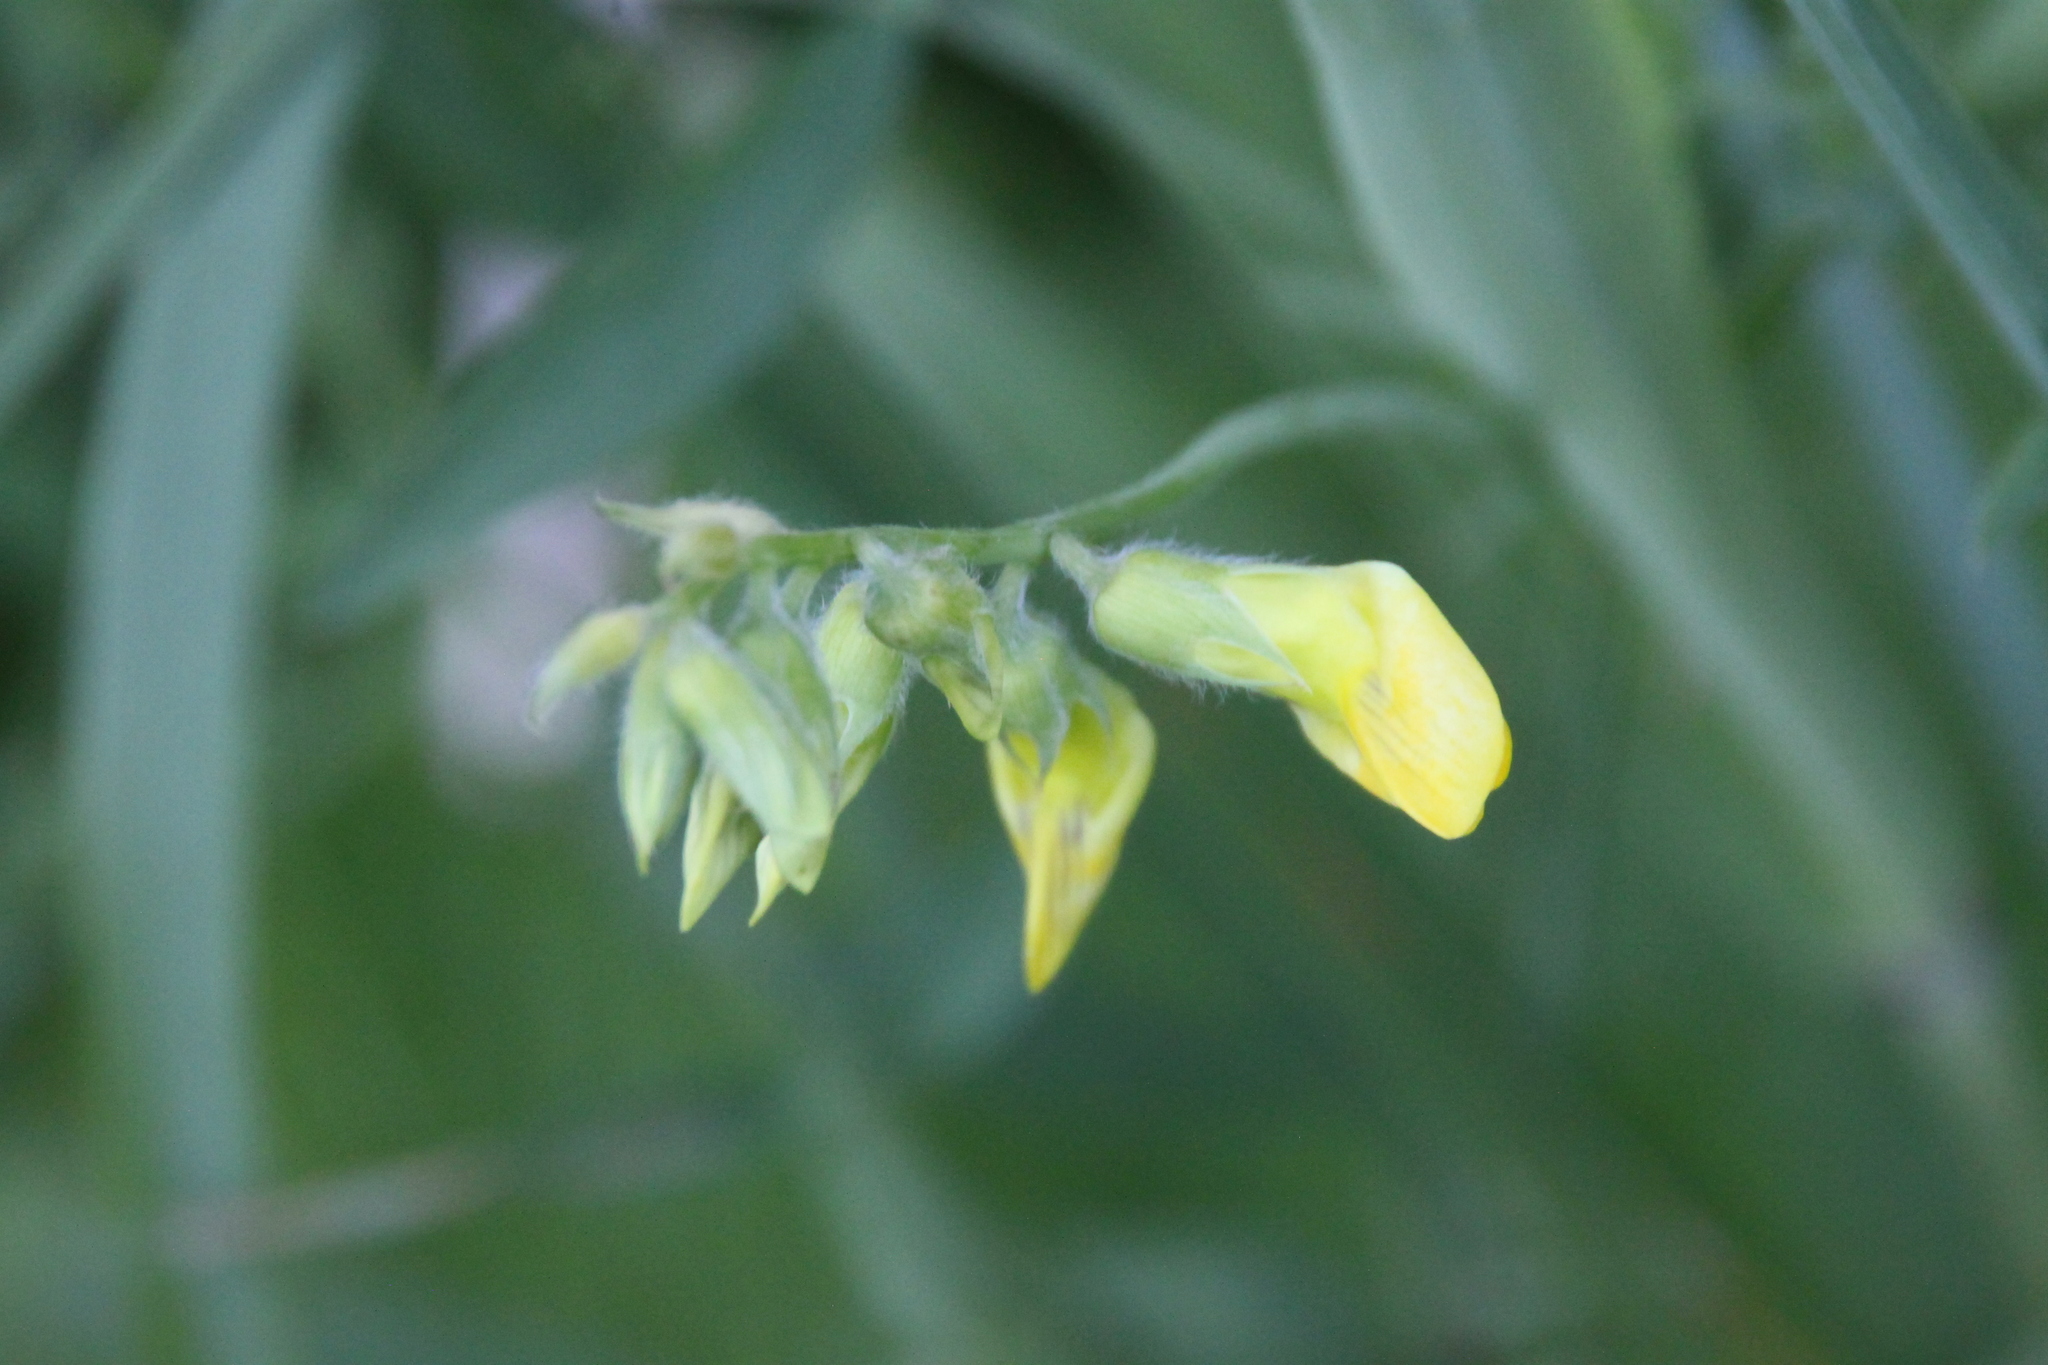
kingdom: Plantae
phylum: Tracheophyta
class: Magnoliopsida
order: Fabales
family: Fabaceae
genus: Lathyrus
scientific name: Lathyrus pratensis
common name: Meadow vetchling
